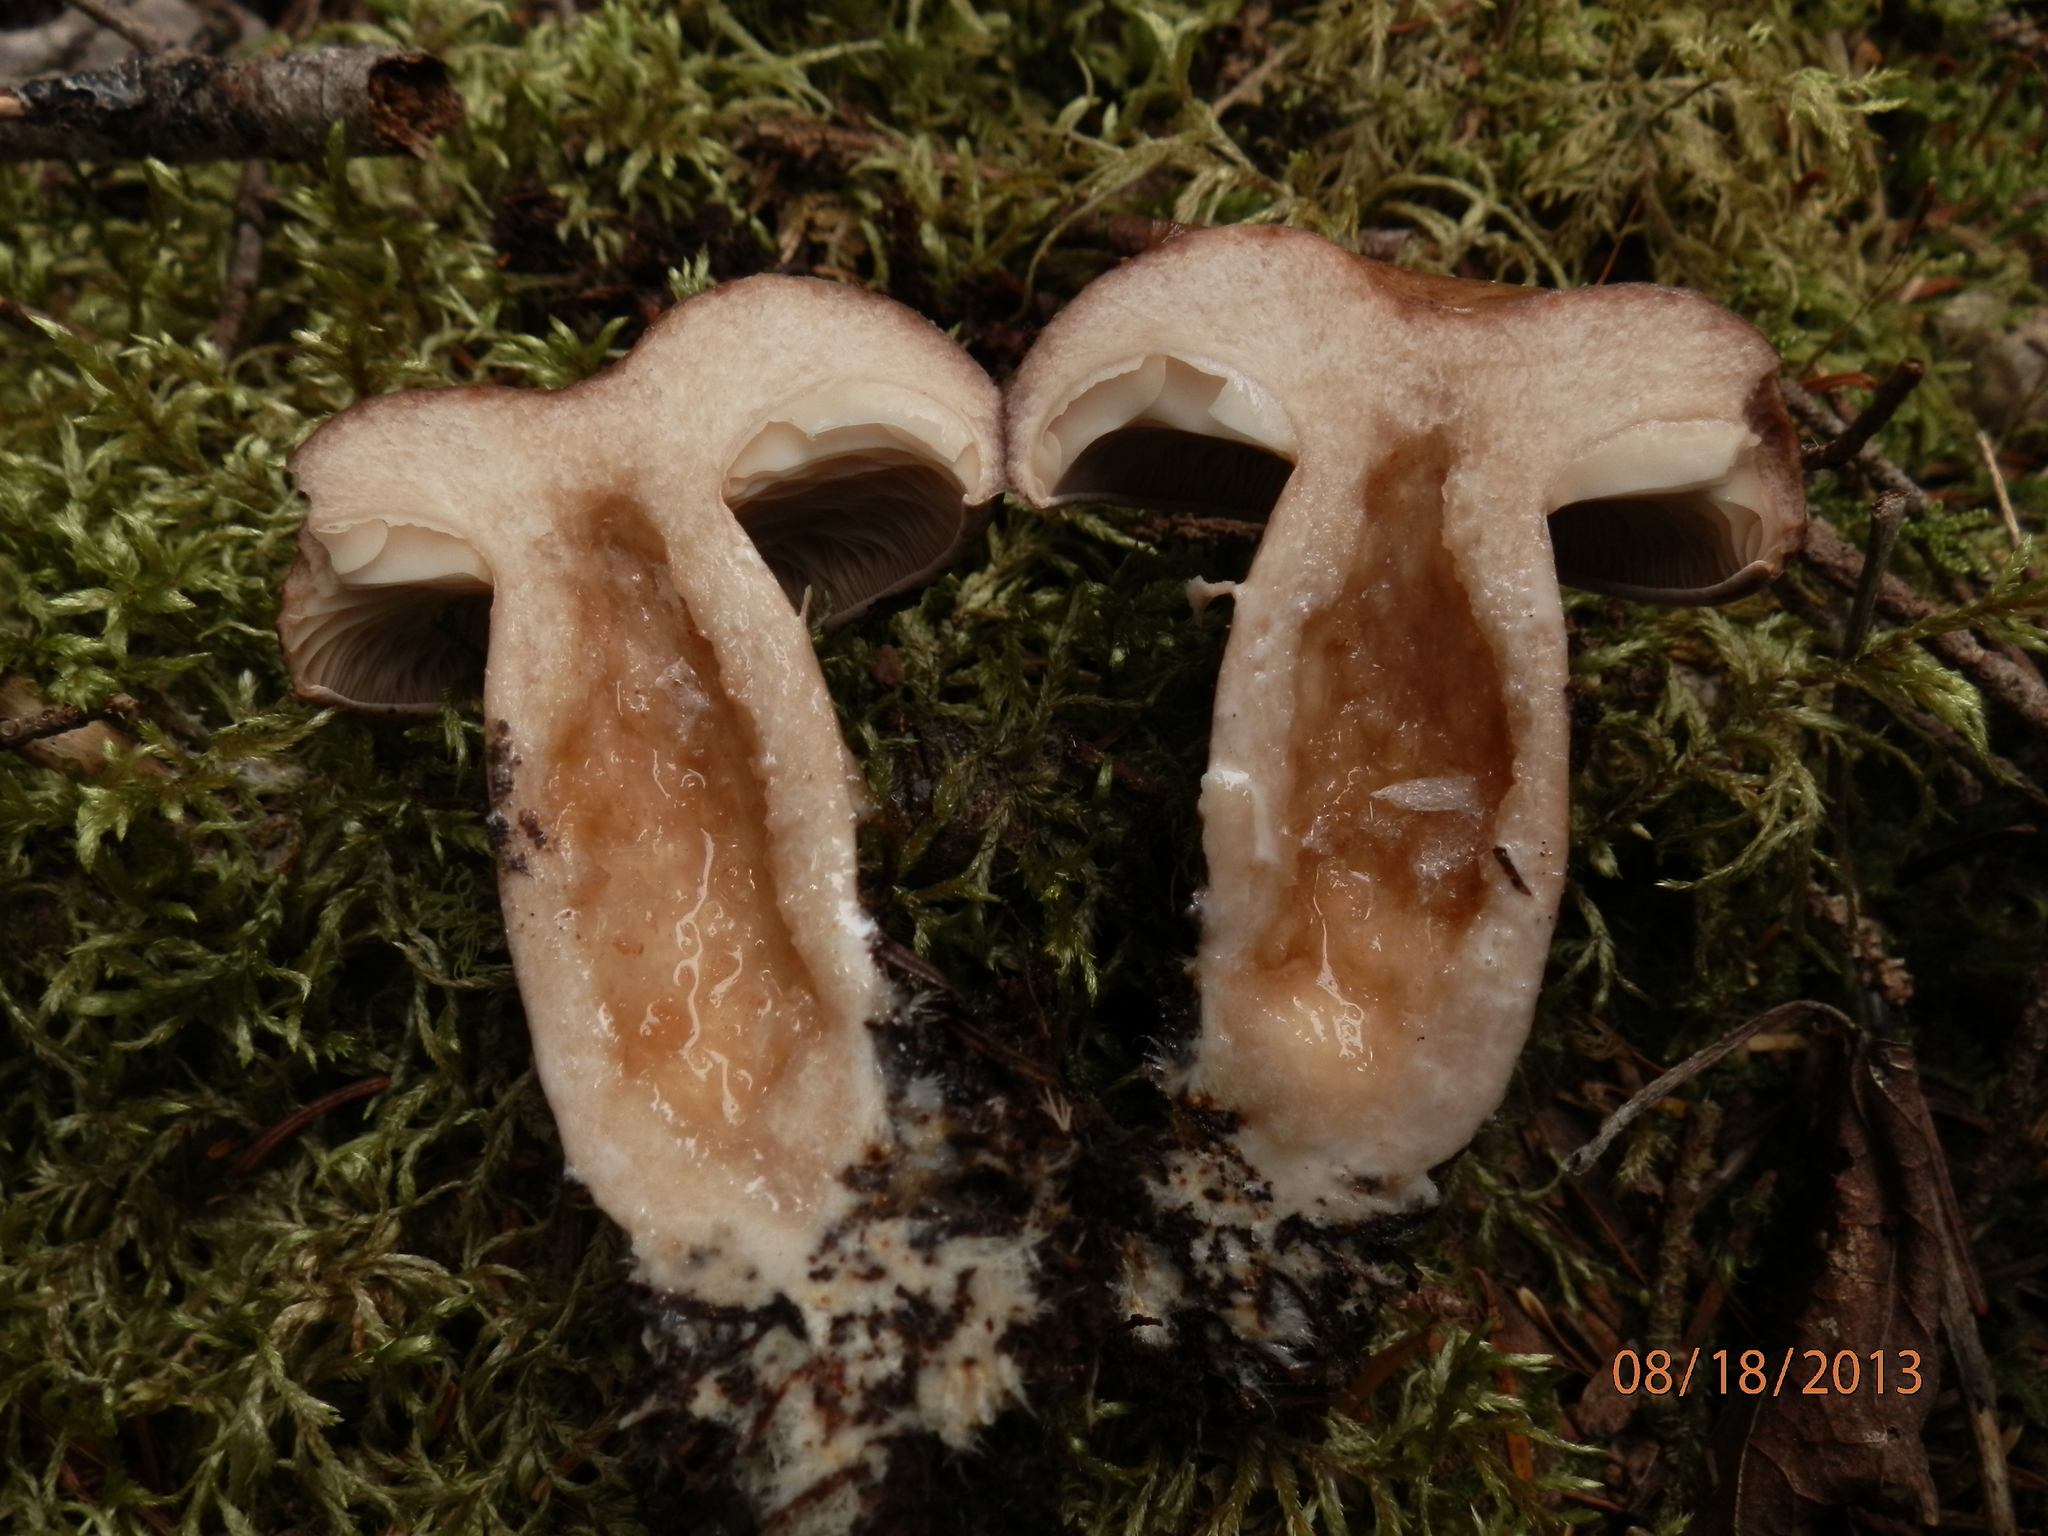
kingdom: Fungi
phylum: Basidiomycota
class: Agaricomycetes
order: Russulales
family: Russulaceae
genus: Lactarius
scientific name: Lactarius affinis
